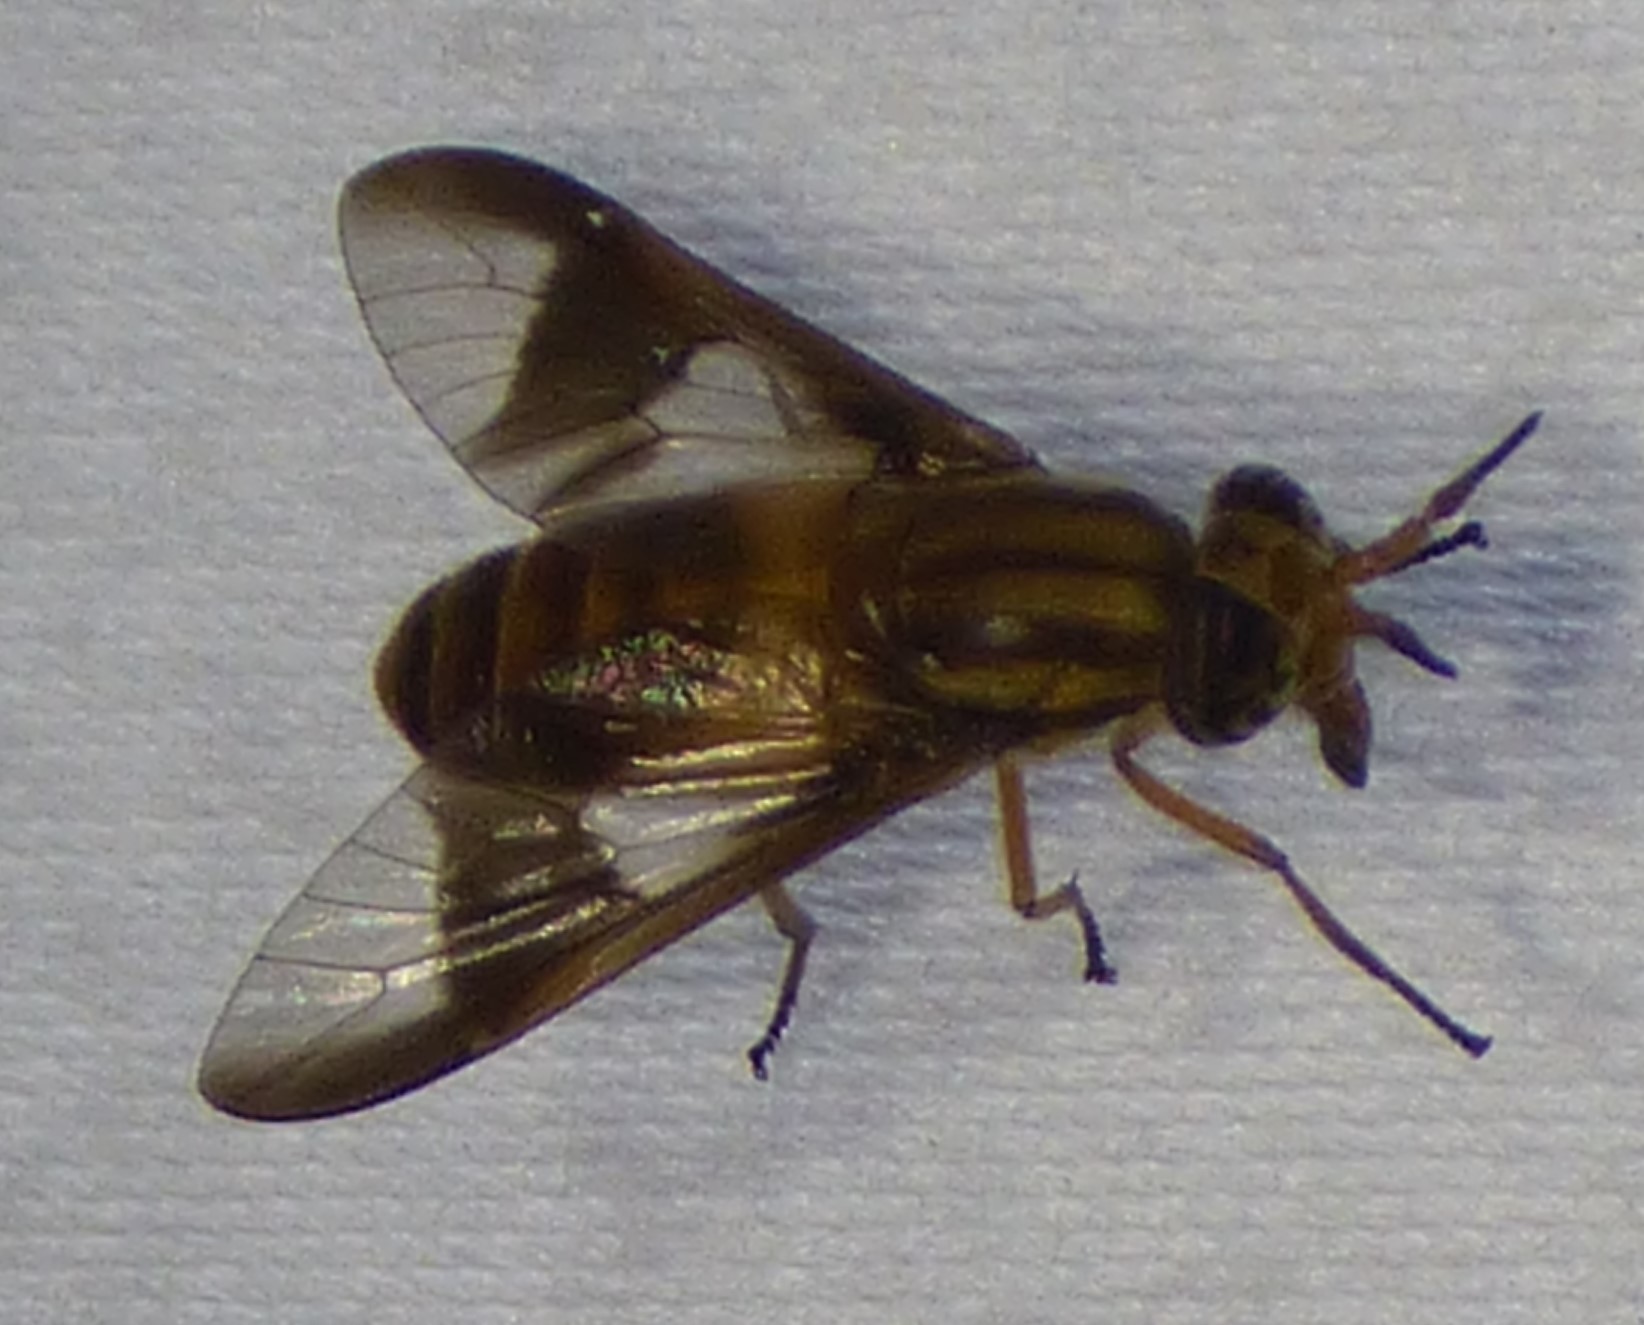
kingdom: Animalia
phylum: Arthropoda
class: Insecta
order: Diptera
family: Tabanidae
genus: Chrysops
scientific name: Chrysops vittatus
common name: Striped deer fly
